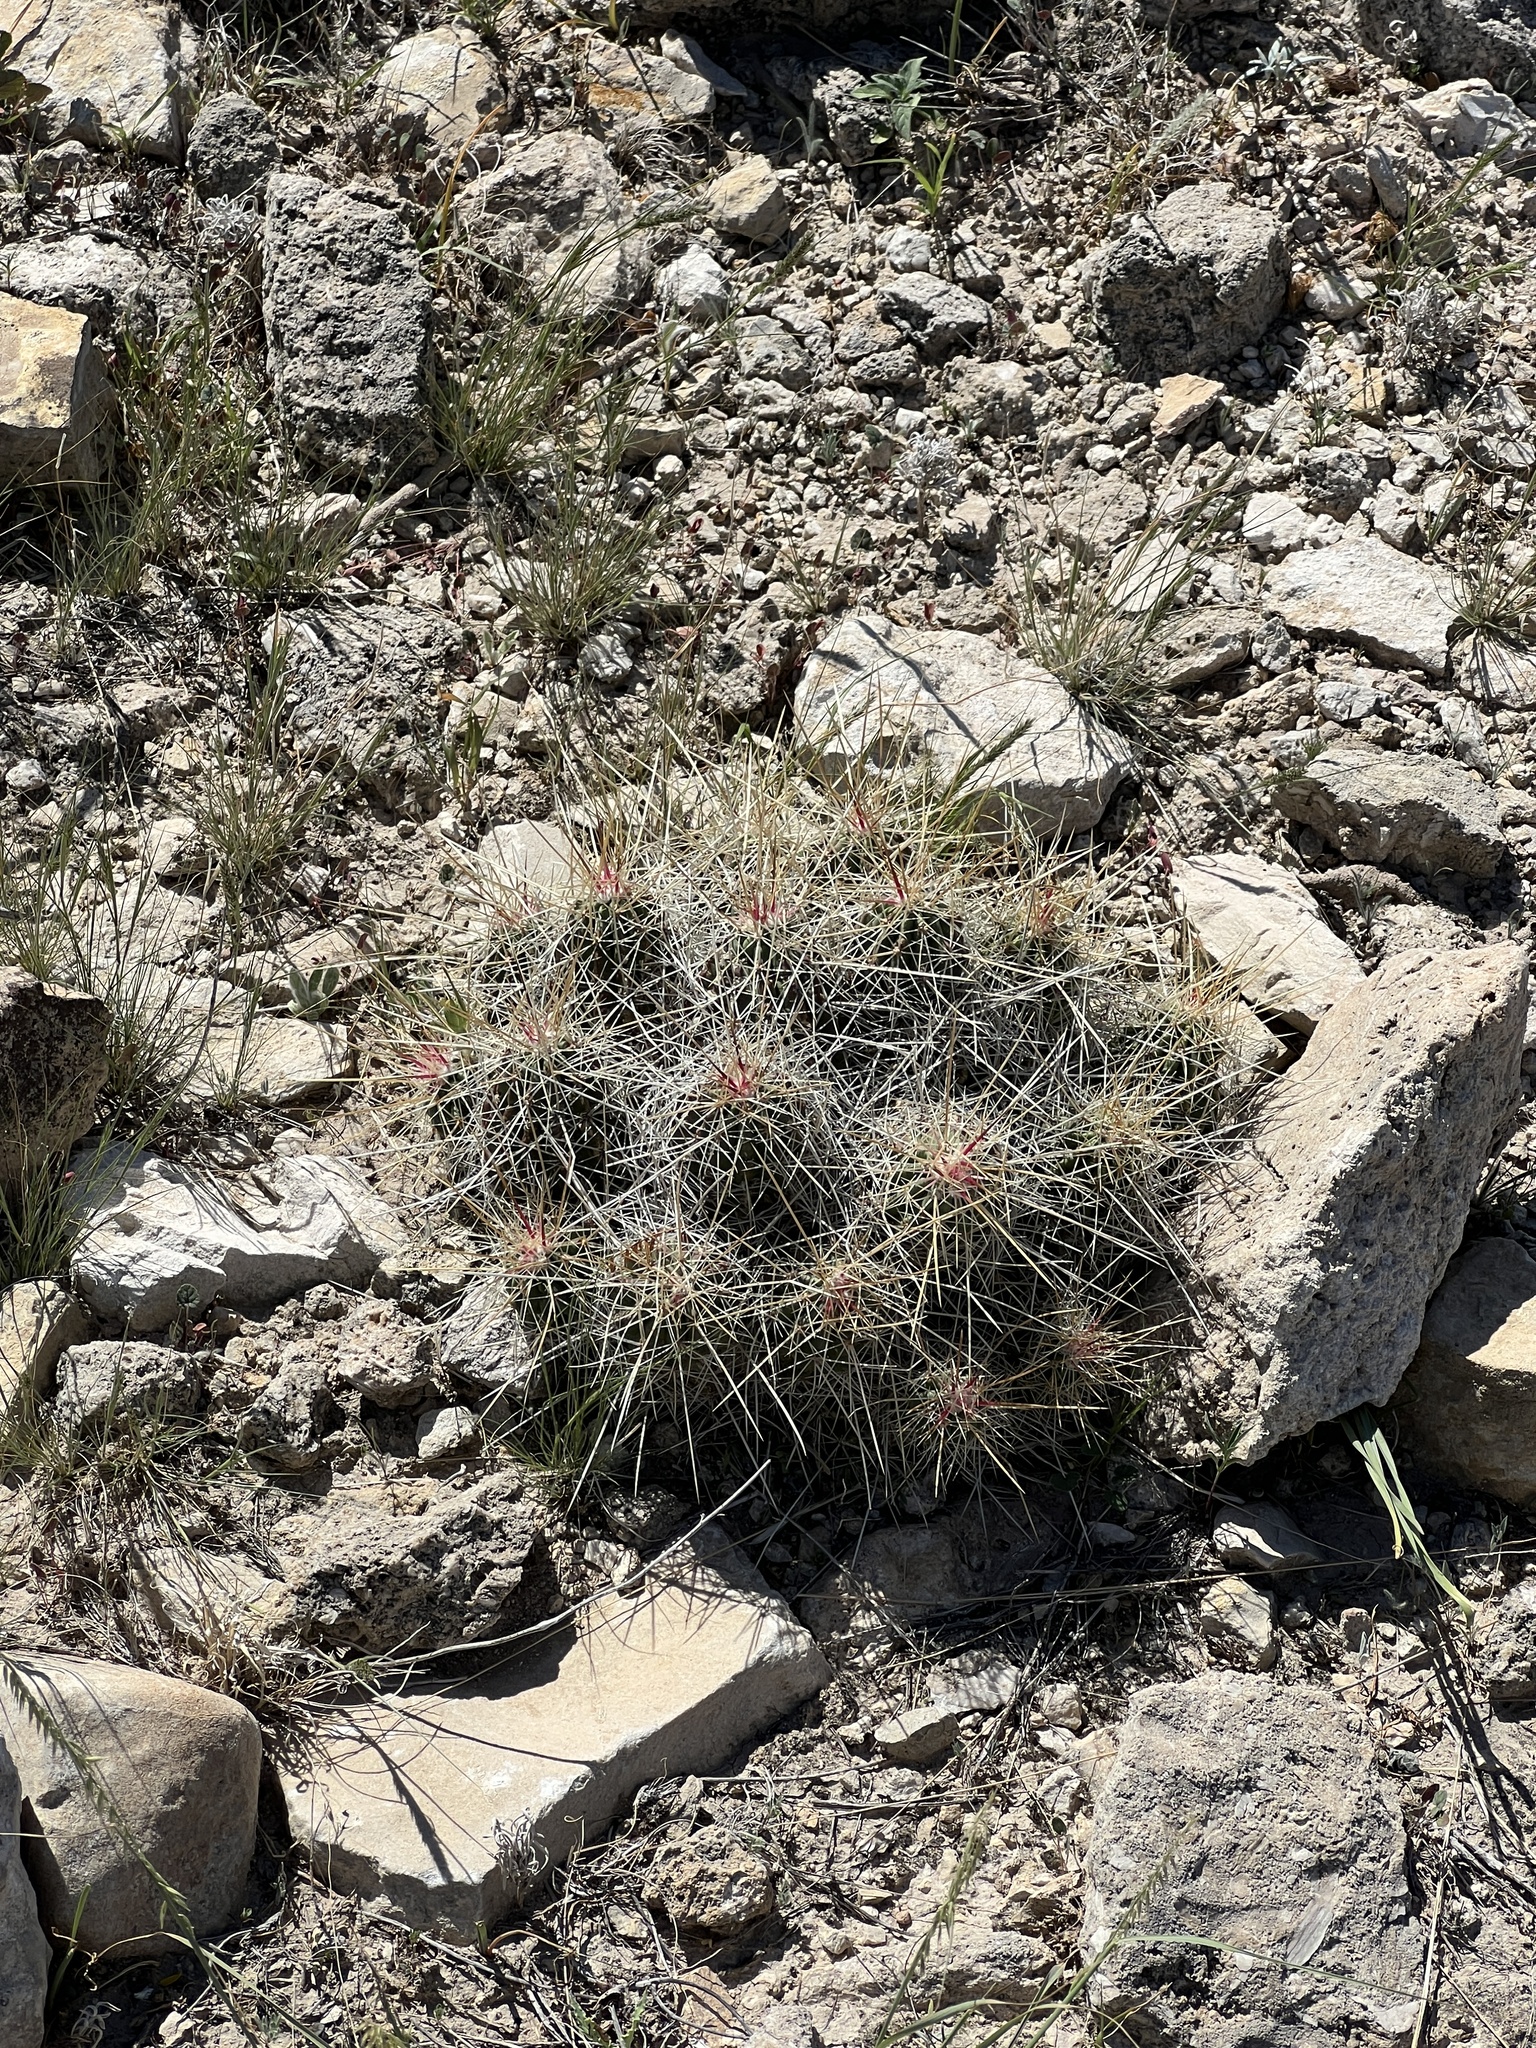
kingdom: Plantae
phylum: Tracheophyta
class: Magnoliopsida
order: Caryophyllales
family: Cactaceae
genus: Echinocereus
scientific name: Echinocereus stramineus
